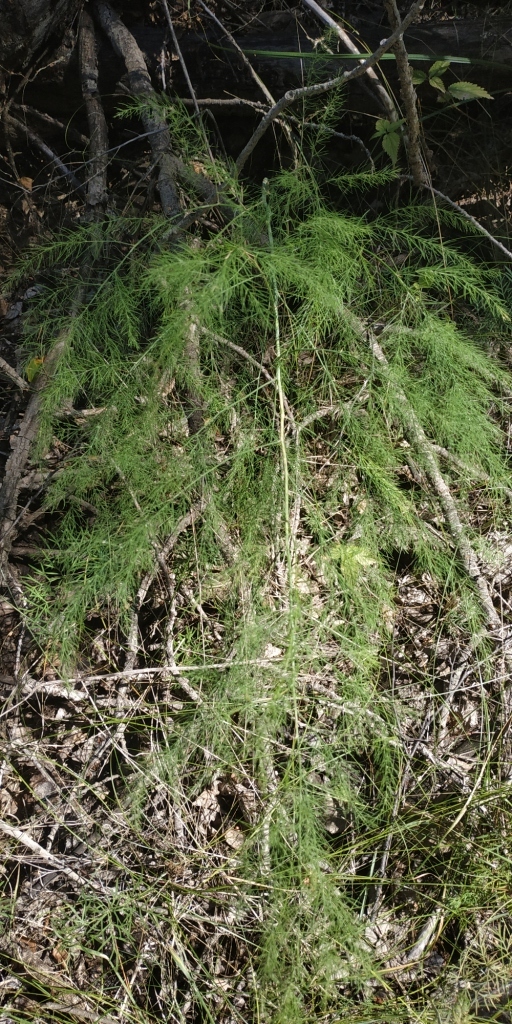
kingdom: Plantae
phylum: Tracheophyta
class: Liliopsida
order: Asparagales
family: Asparagaceae
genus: Asparagus
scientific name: Asparagus officinalis
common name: Garden asparagus
